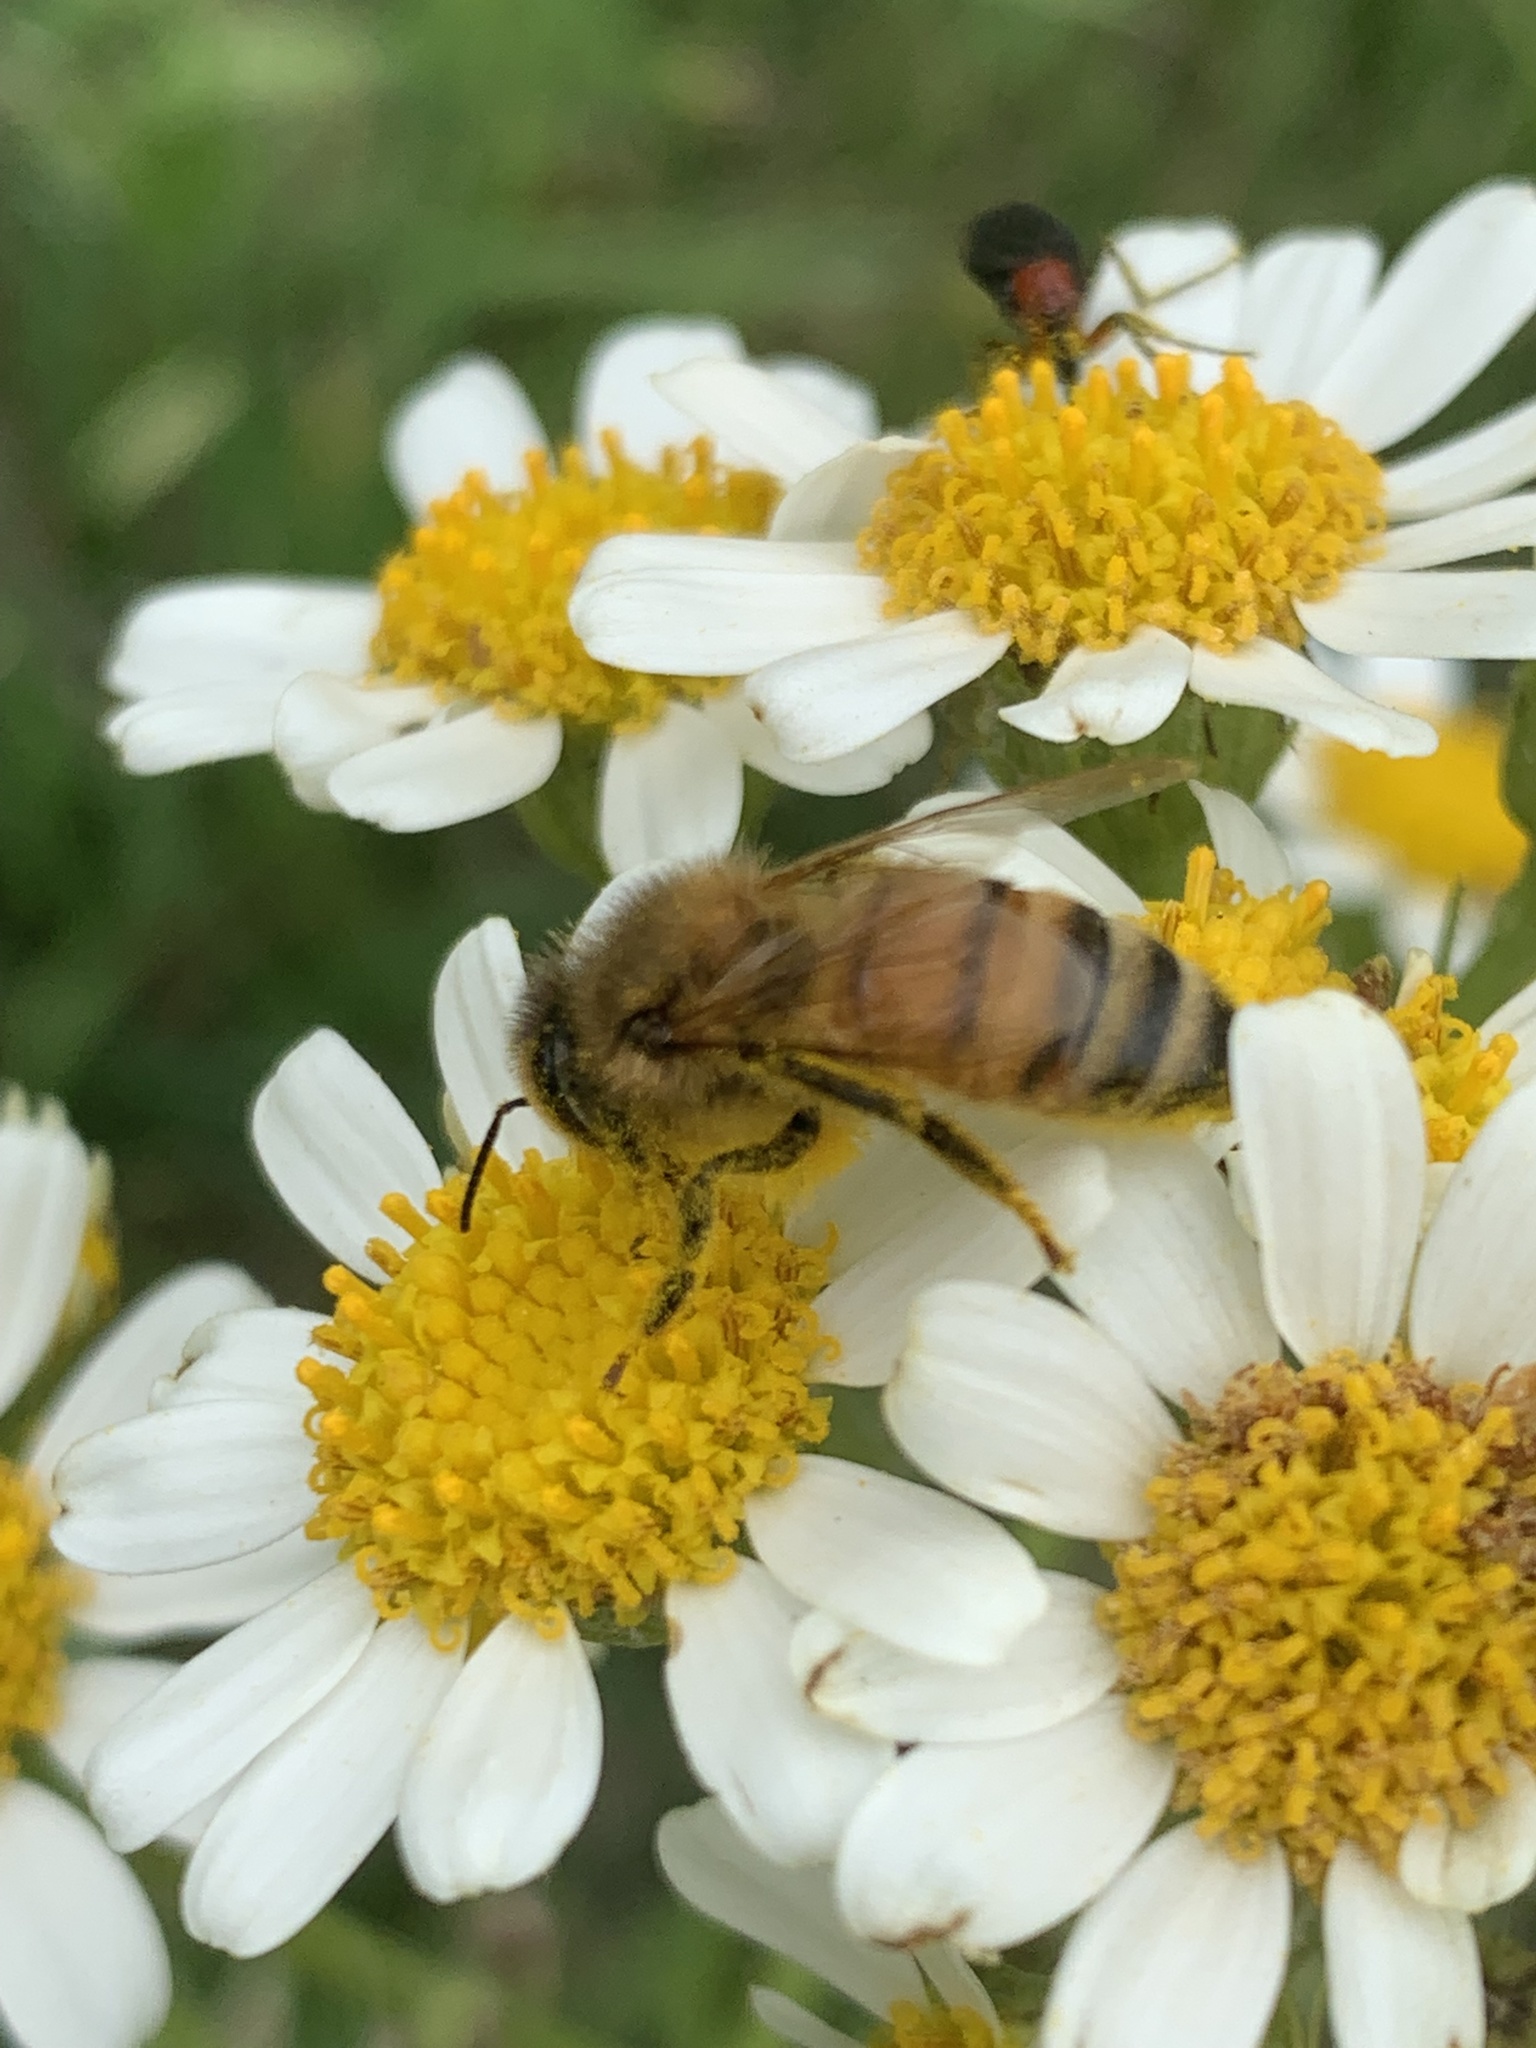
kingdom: Animalia
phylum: Arthropoda
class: Insecta
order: Hymenoptera
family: Apidae
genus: Apis
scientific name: Apis mellifera
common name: Honey bee
